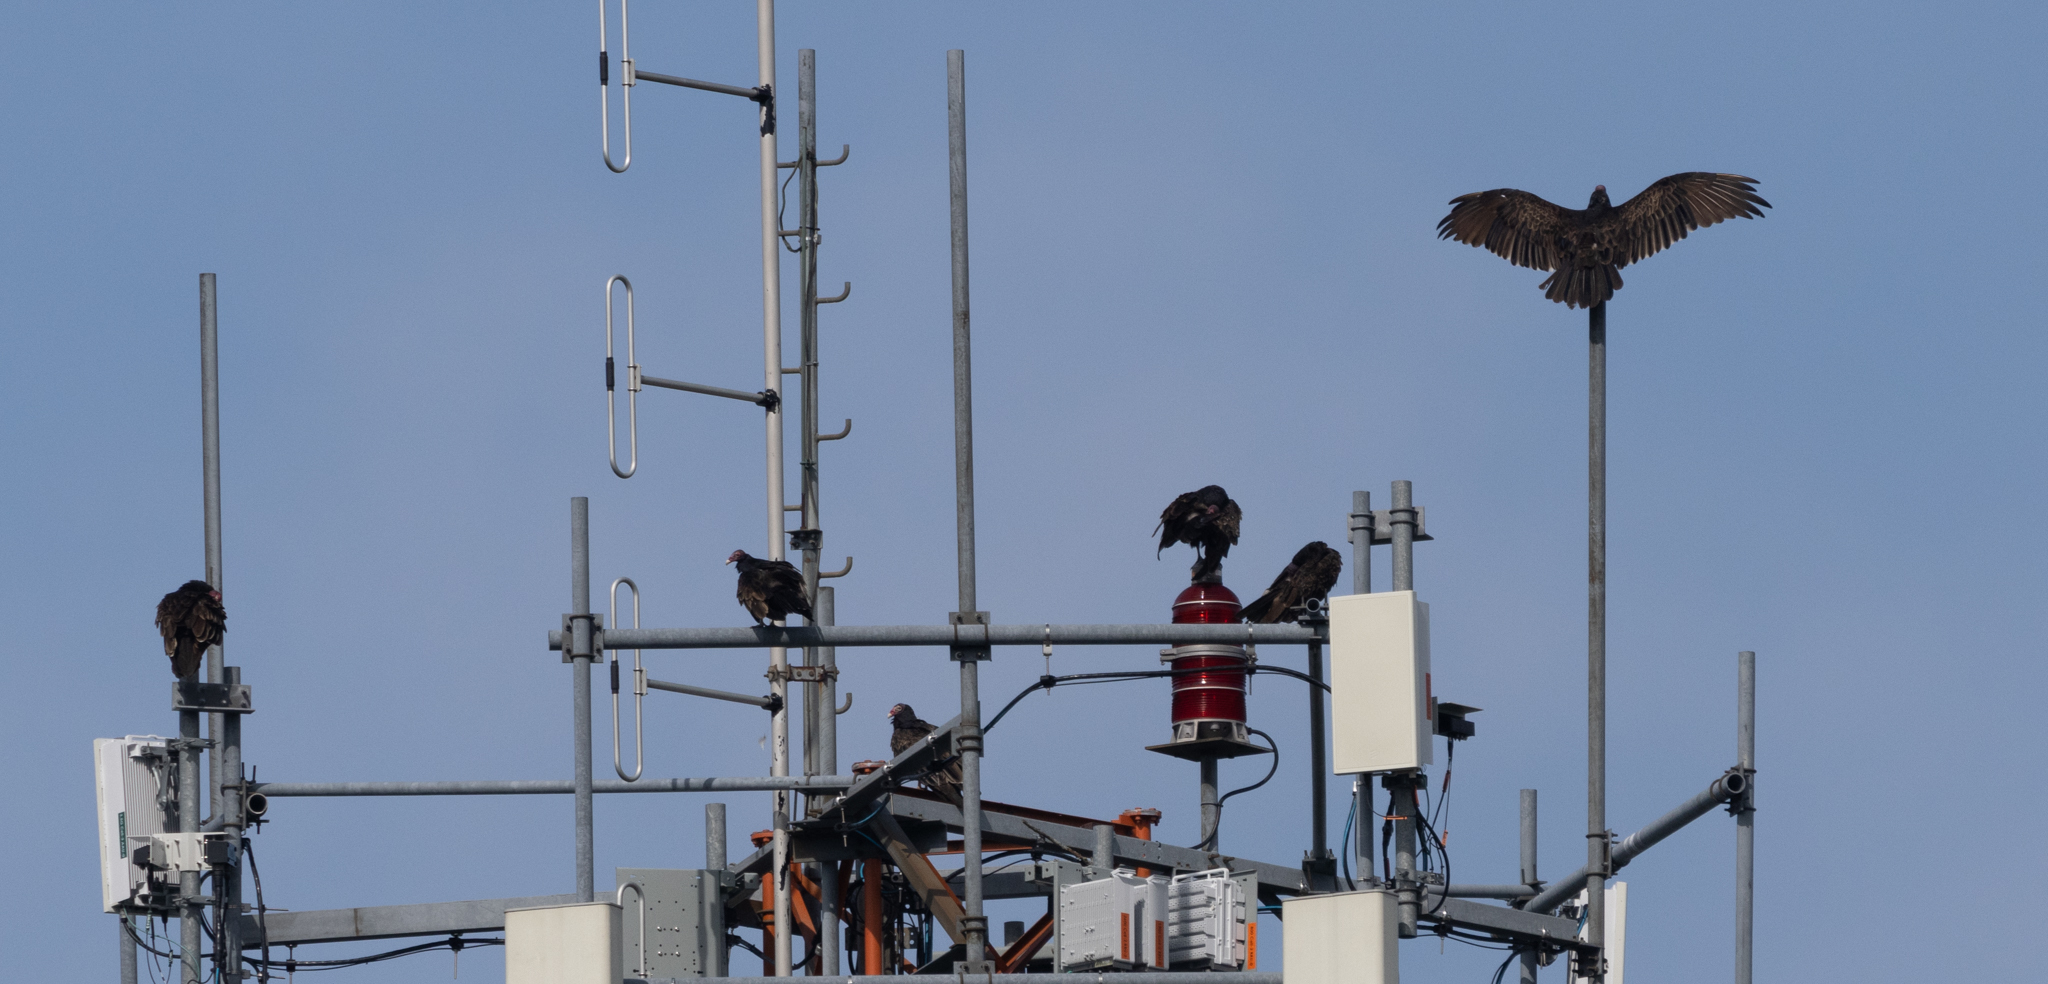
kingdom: Animalia
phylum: Chordata
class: Aves
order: Accipitriformes
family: Cathartidae
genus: Cathartes
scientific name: Cathartes aura
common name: Turkey vulture
